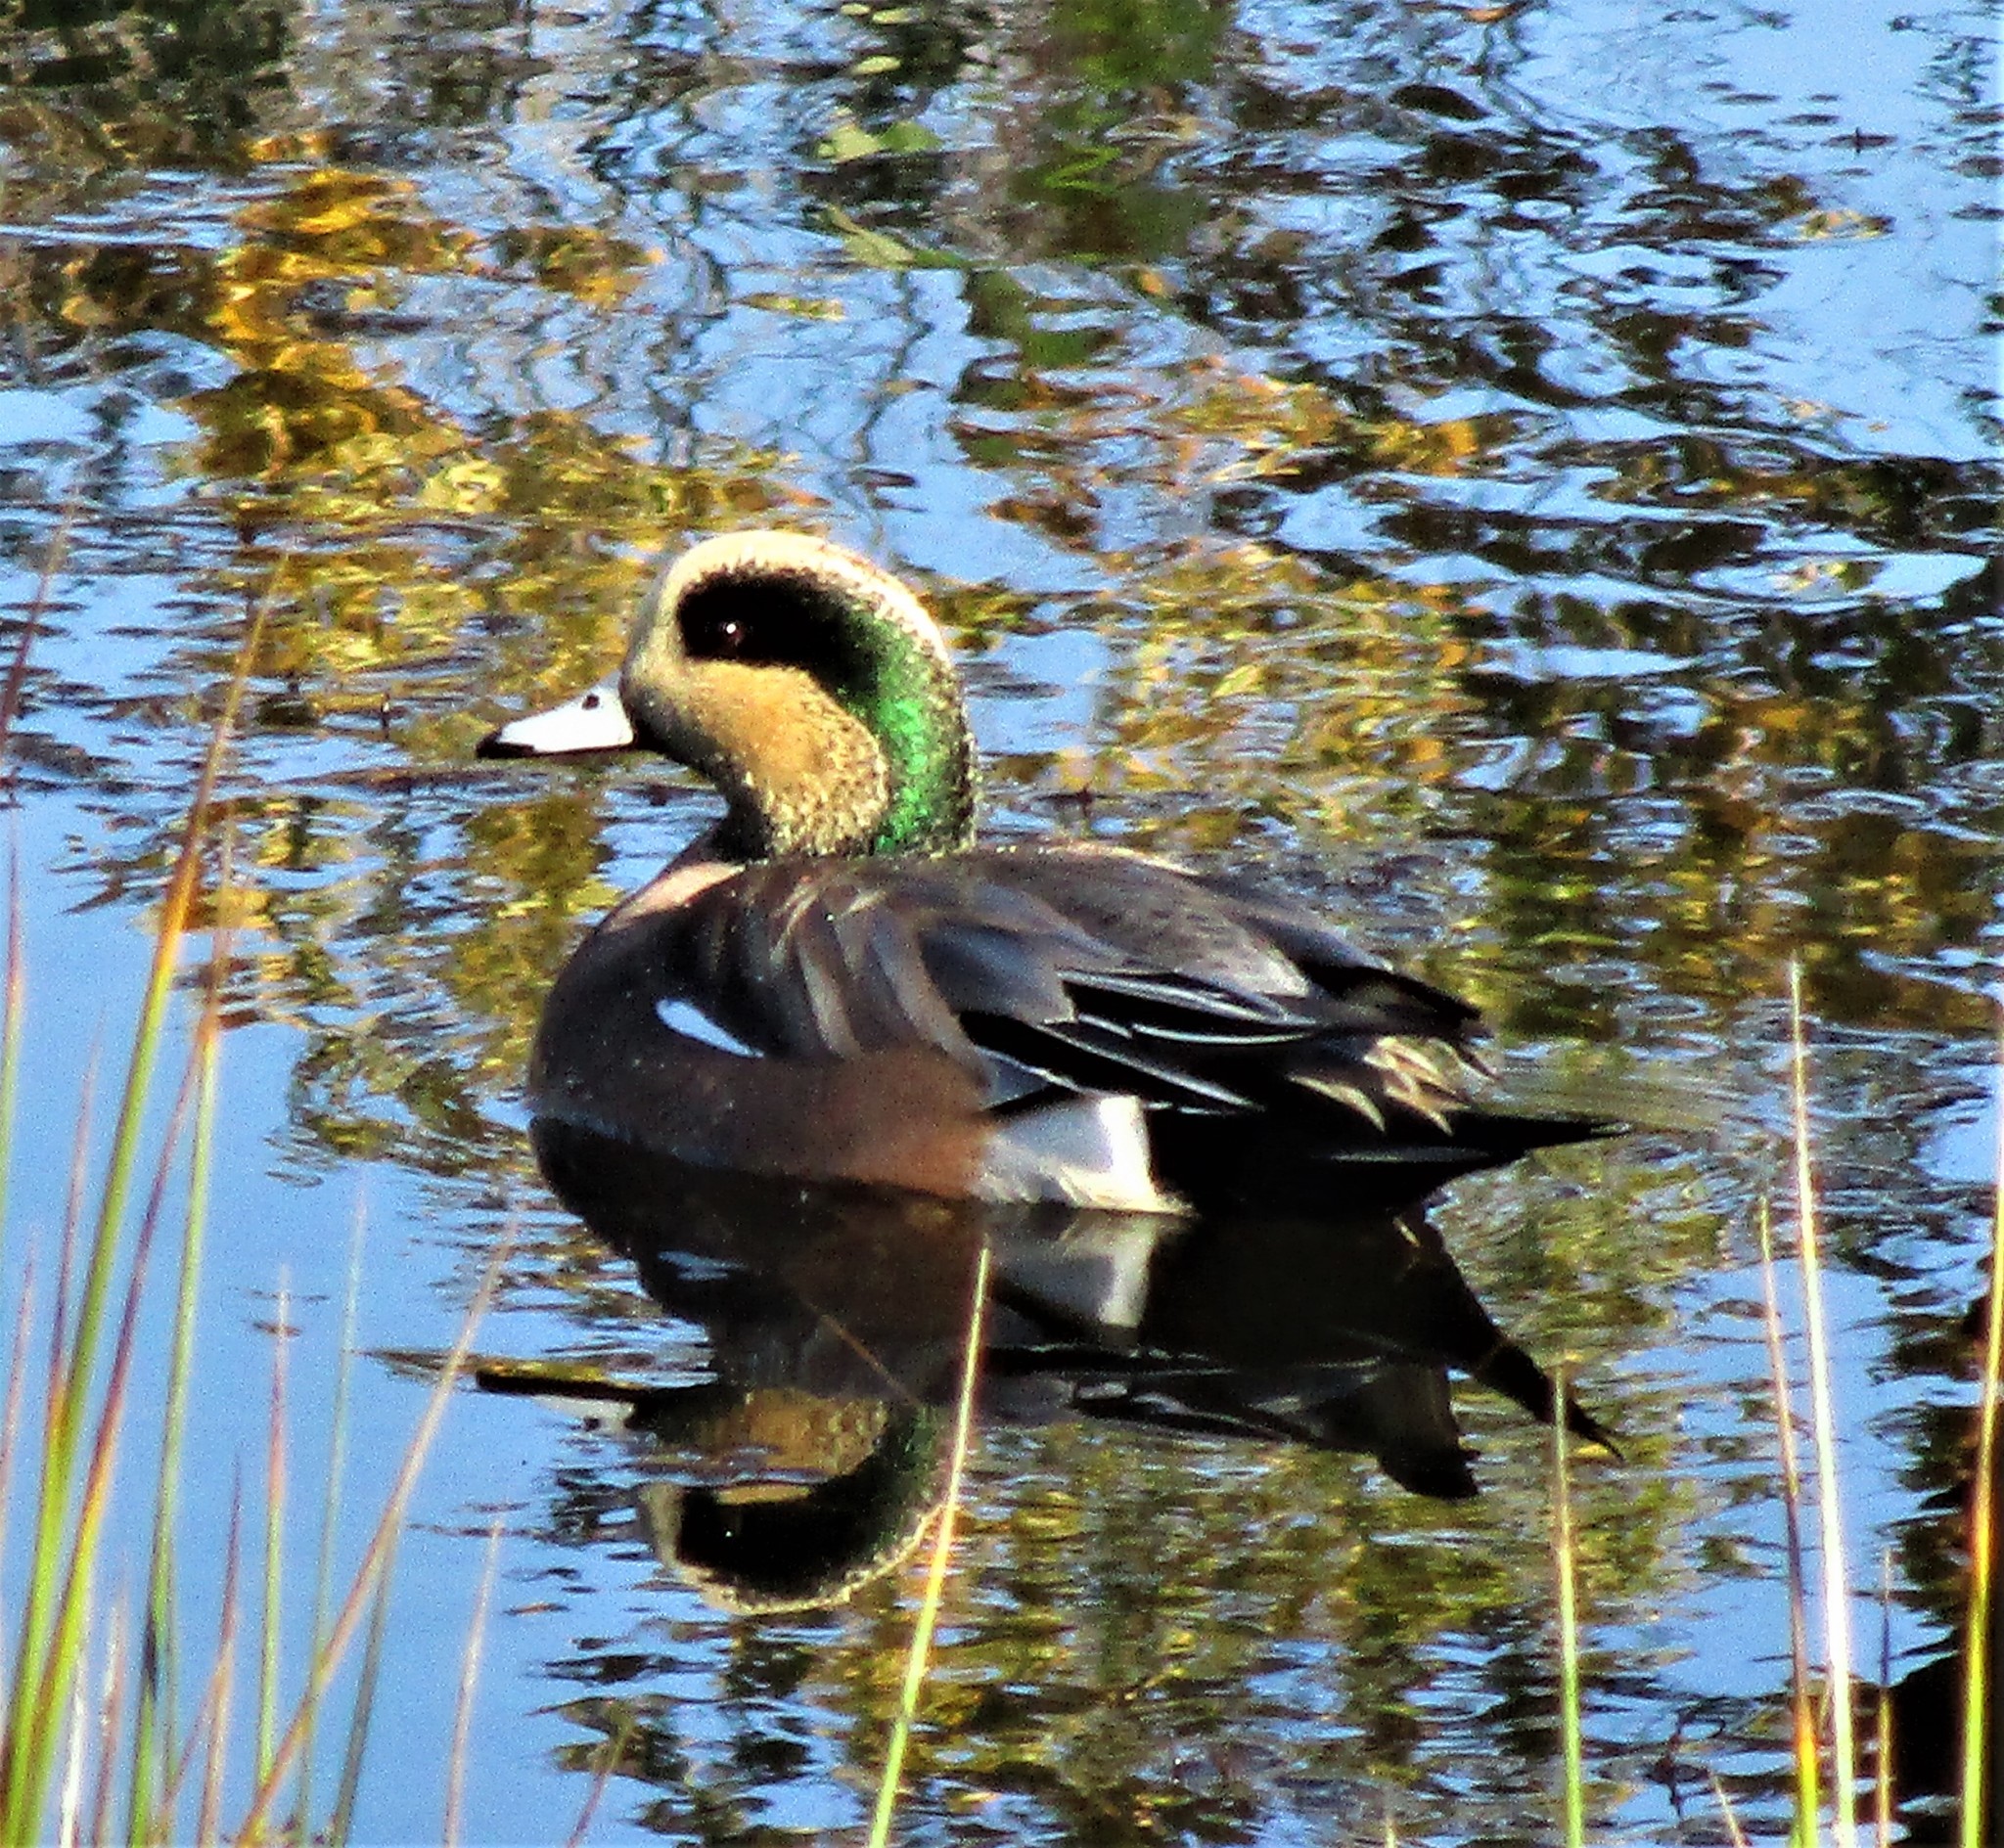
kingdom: Animalia
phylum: Chordata
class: Aves
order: Anseriformes
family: Anatidae
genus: Mareca
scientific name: Mareca americana
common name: American wigeon
